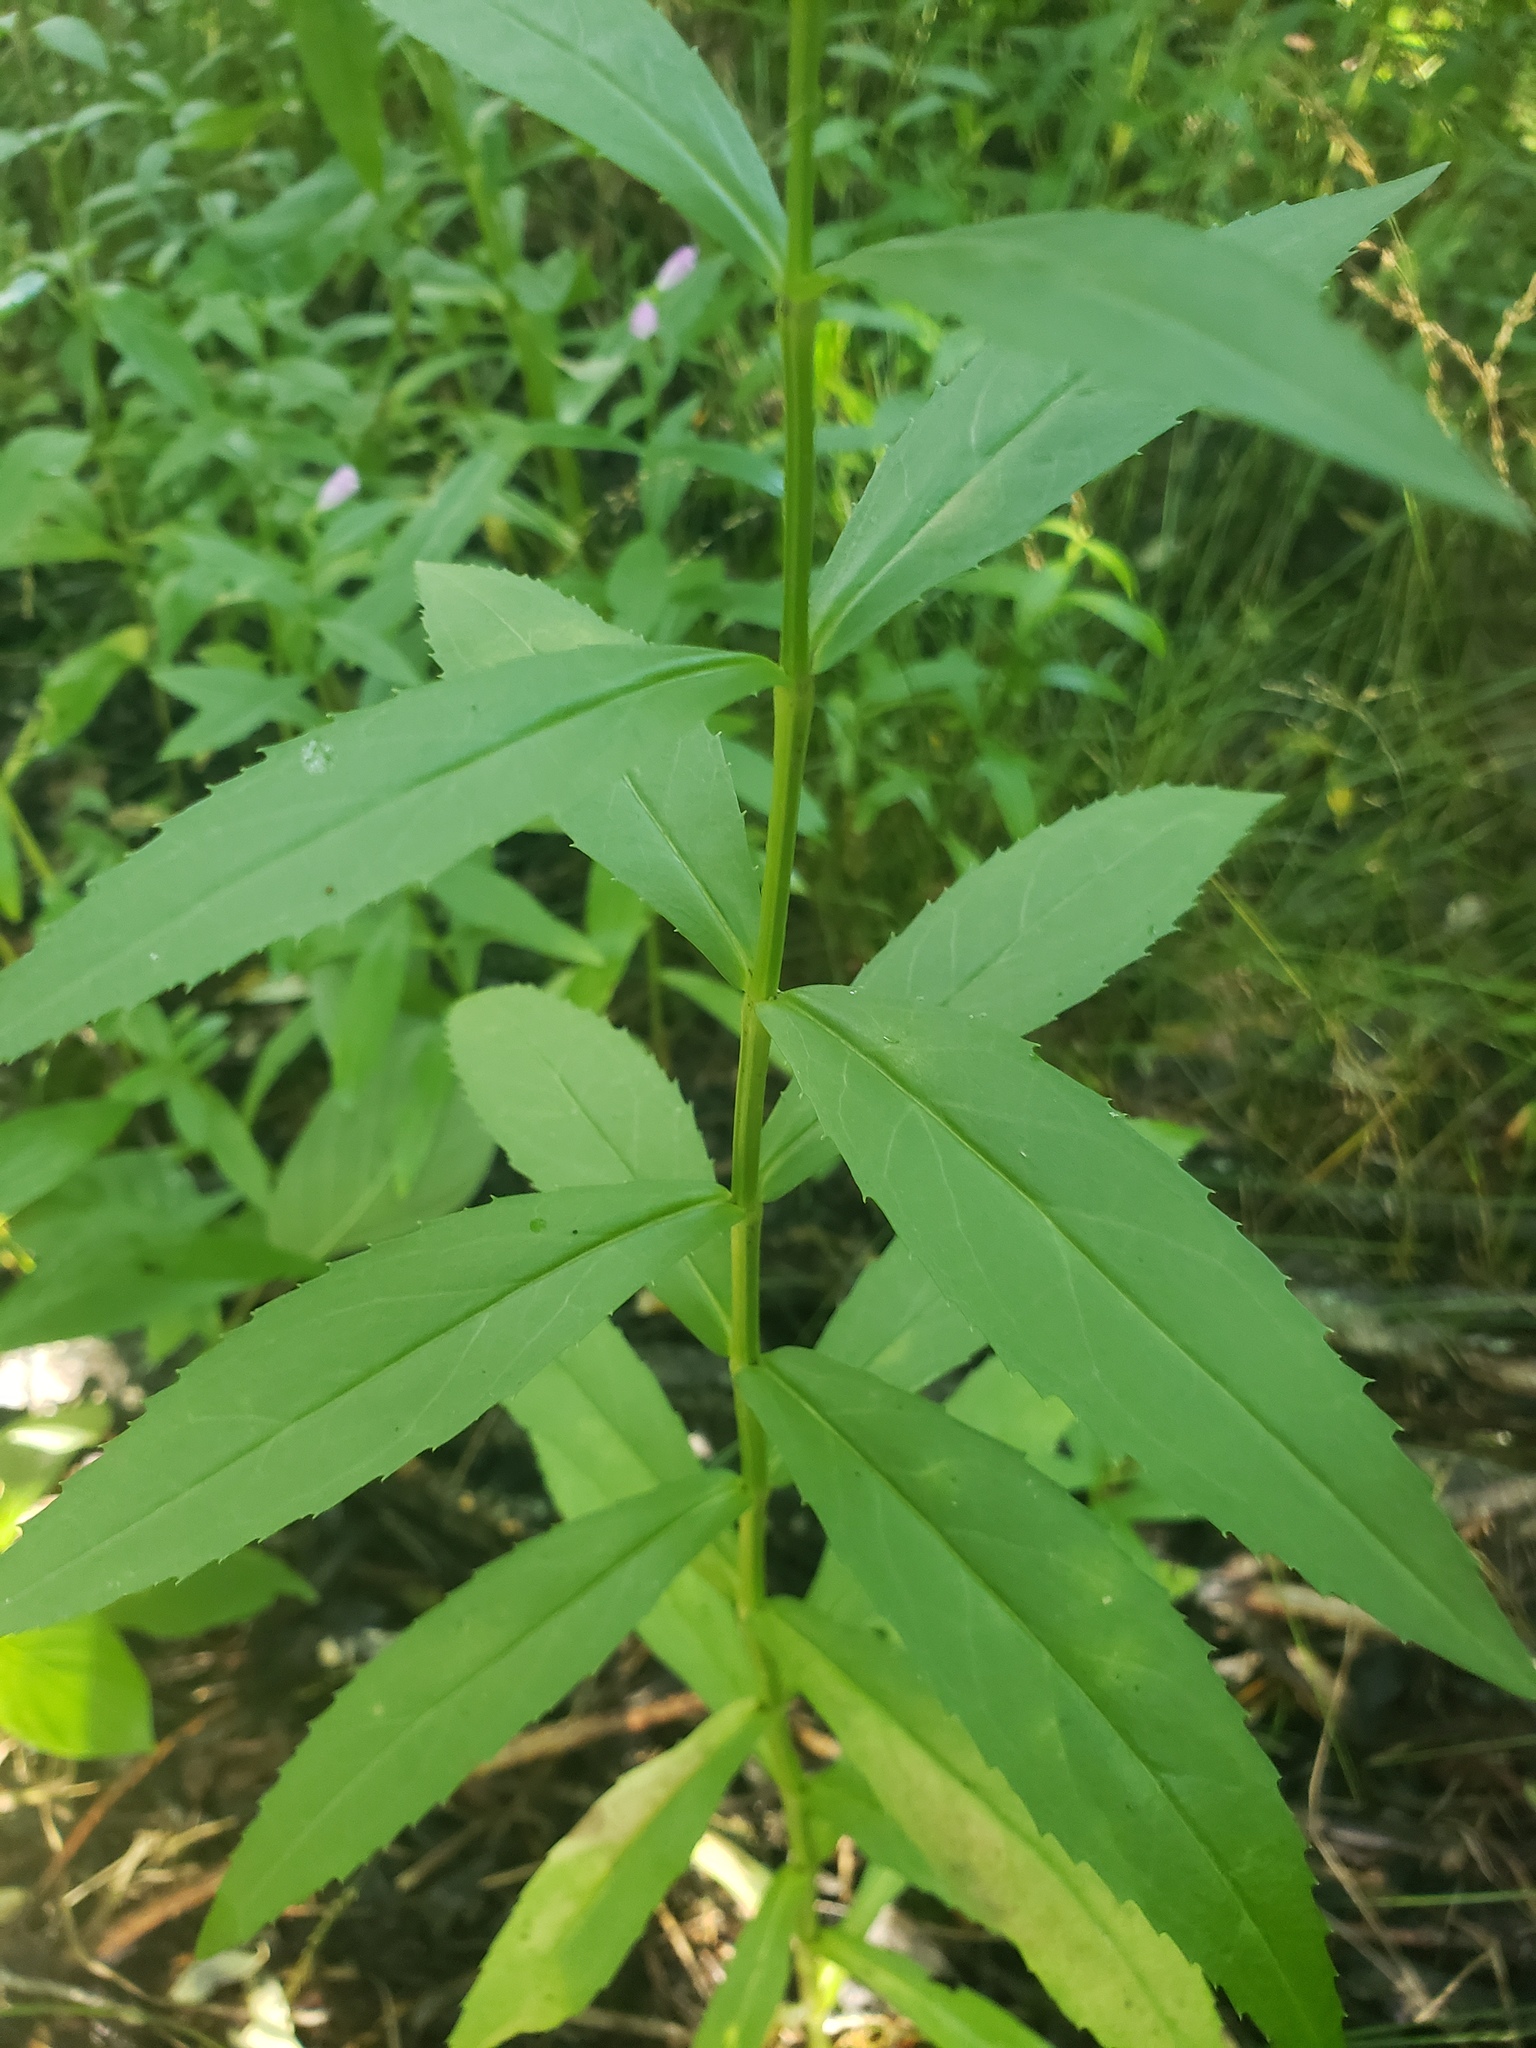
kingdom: Plantae
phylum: Tracheophyta
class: Magnoliopsida
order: Lamiales
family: Lamiaceae
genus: Physostegia
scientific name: Physostegia virginiana
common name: Obedient-plant
